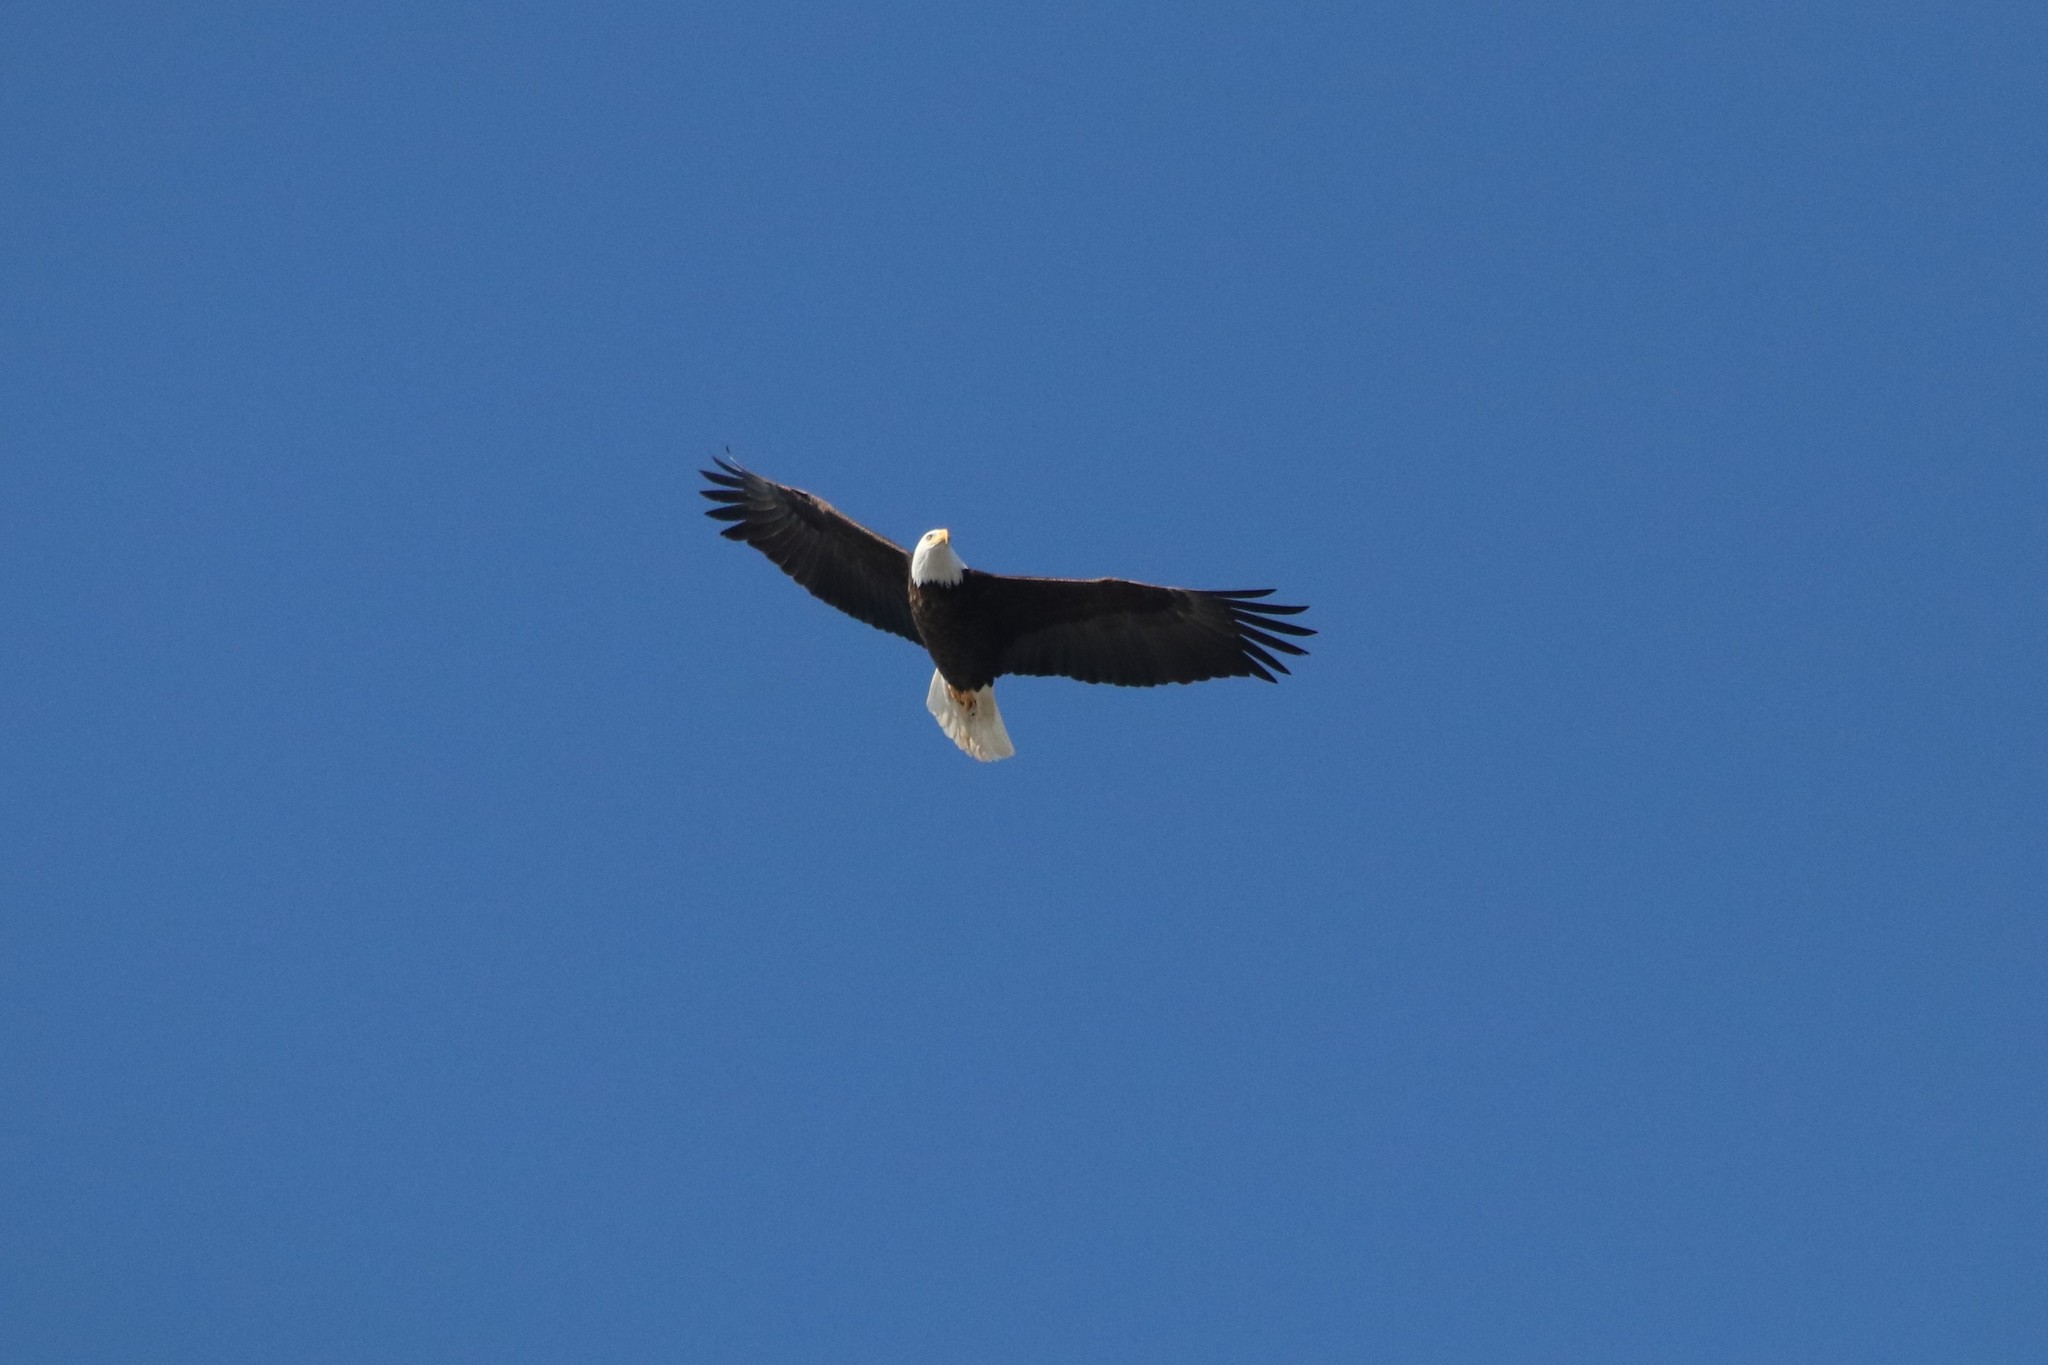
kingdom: Animalia
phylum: Chordata
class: Aves
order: Accipitriformes
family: Accipitridae
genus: Haliaeetus
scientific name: Haliaeetus leucocephalus
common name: Bald eagle
